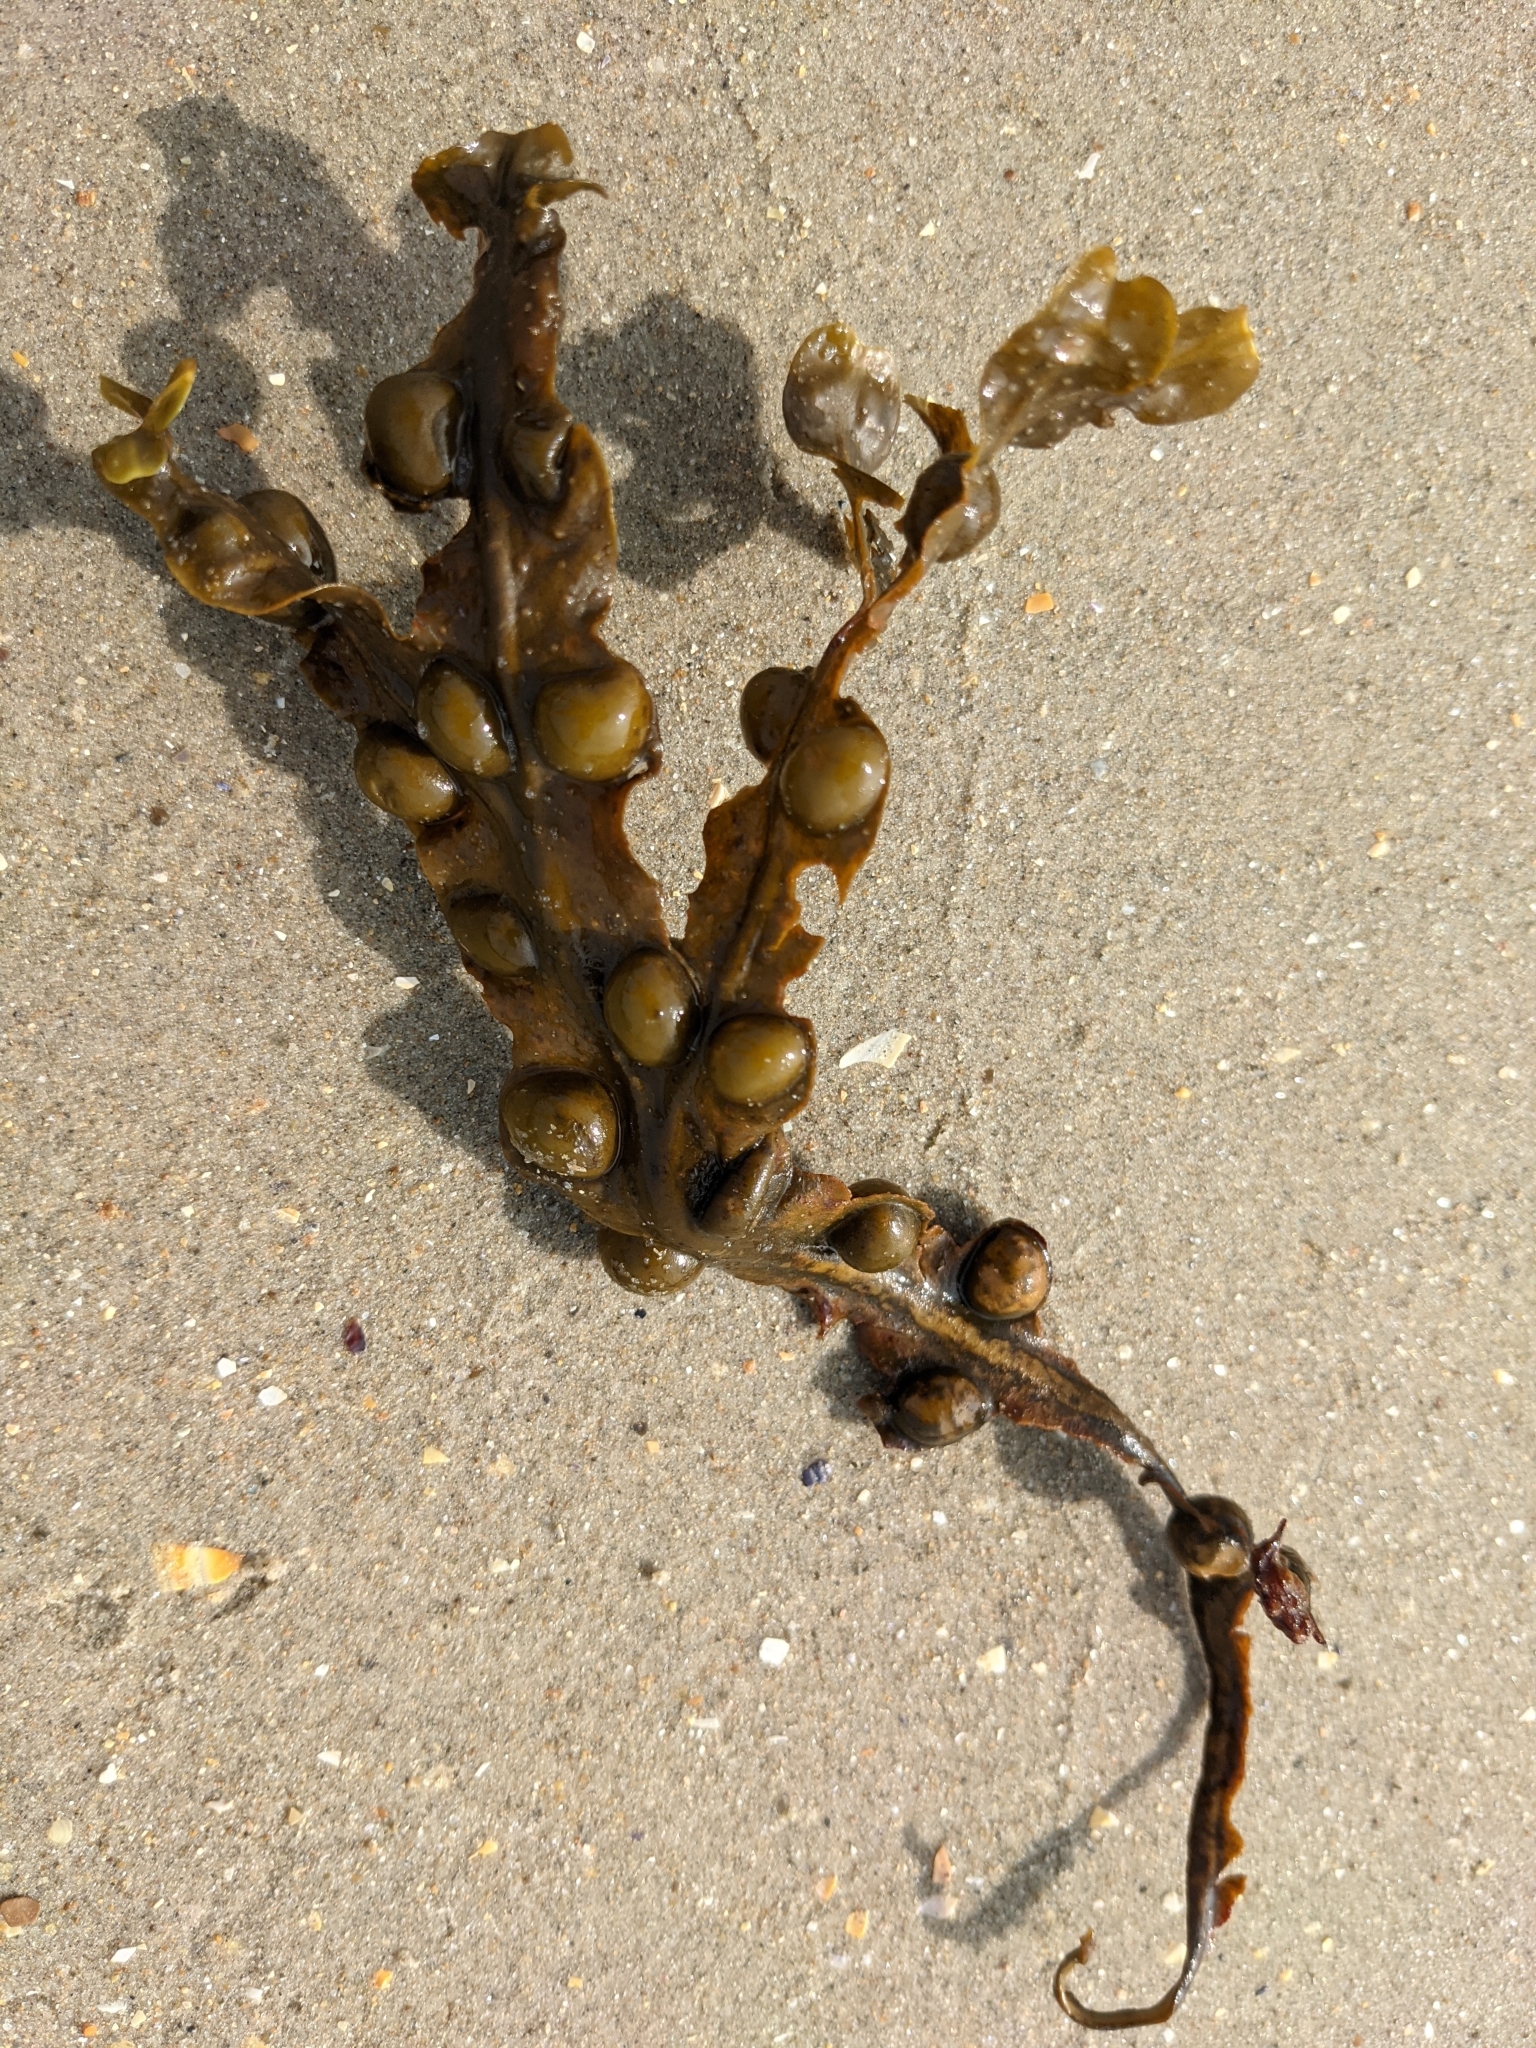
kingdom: Chromista
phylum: Ochrophyta
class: Phaeophyceae
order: Fucales
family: Fucaceae
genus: Fucus
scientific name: Fucus vesiculosus
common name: Bladder wrack
